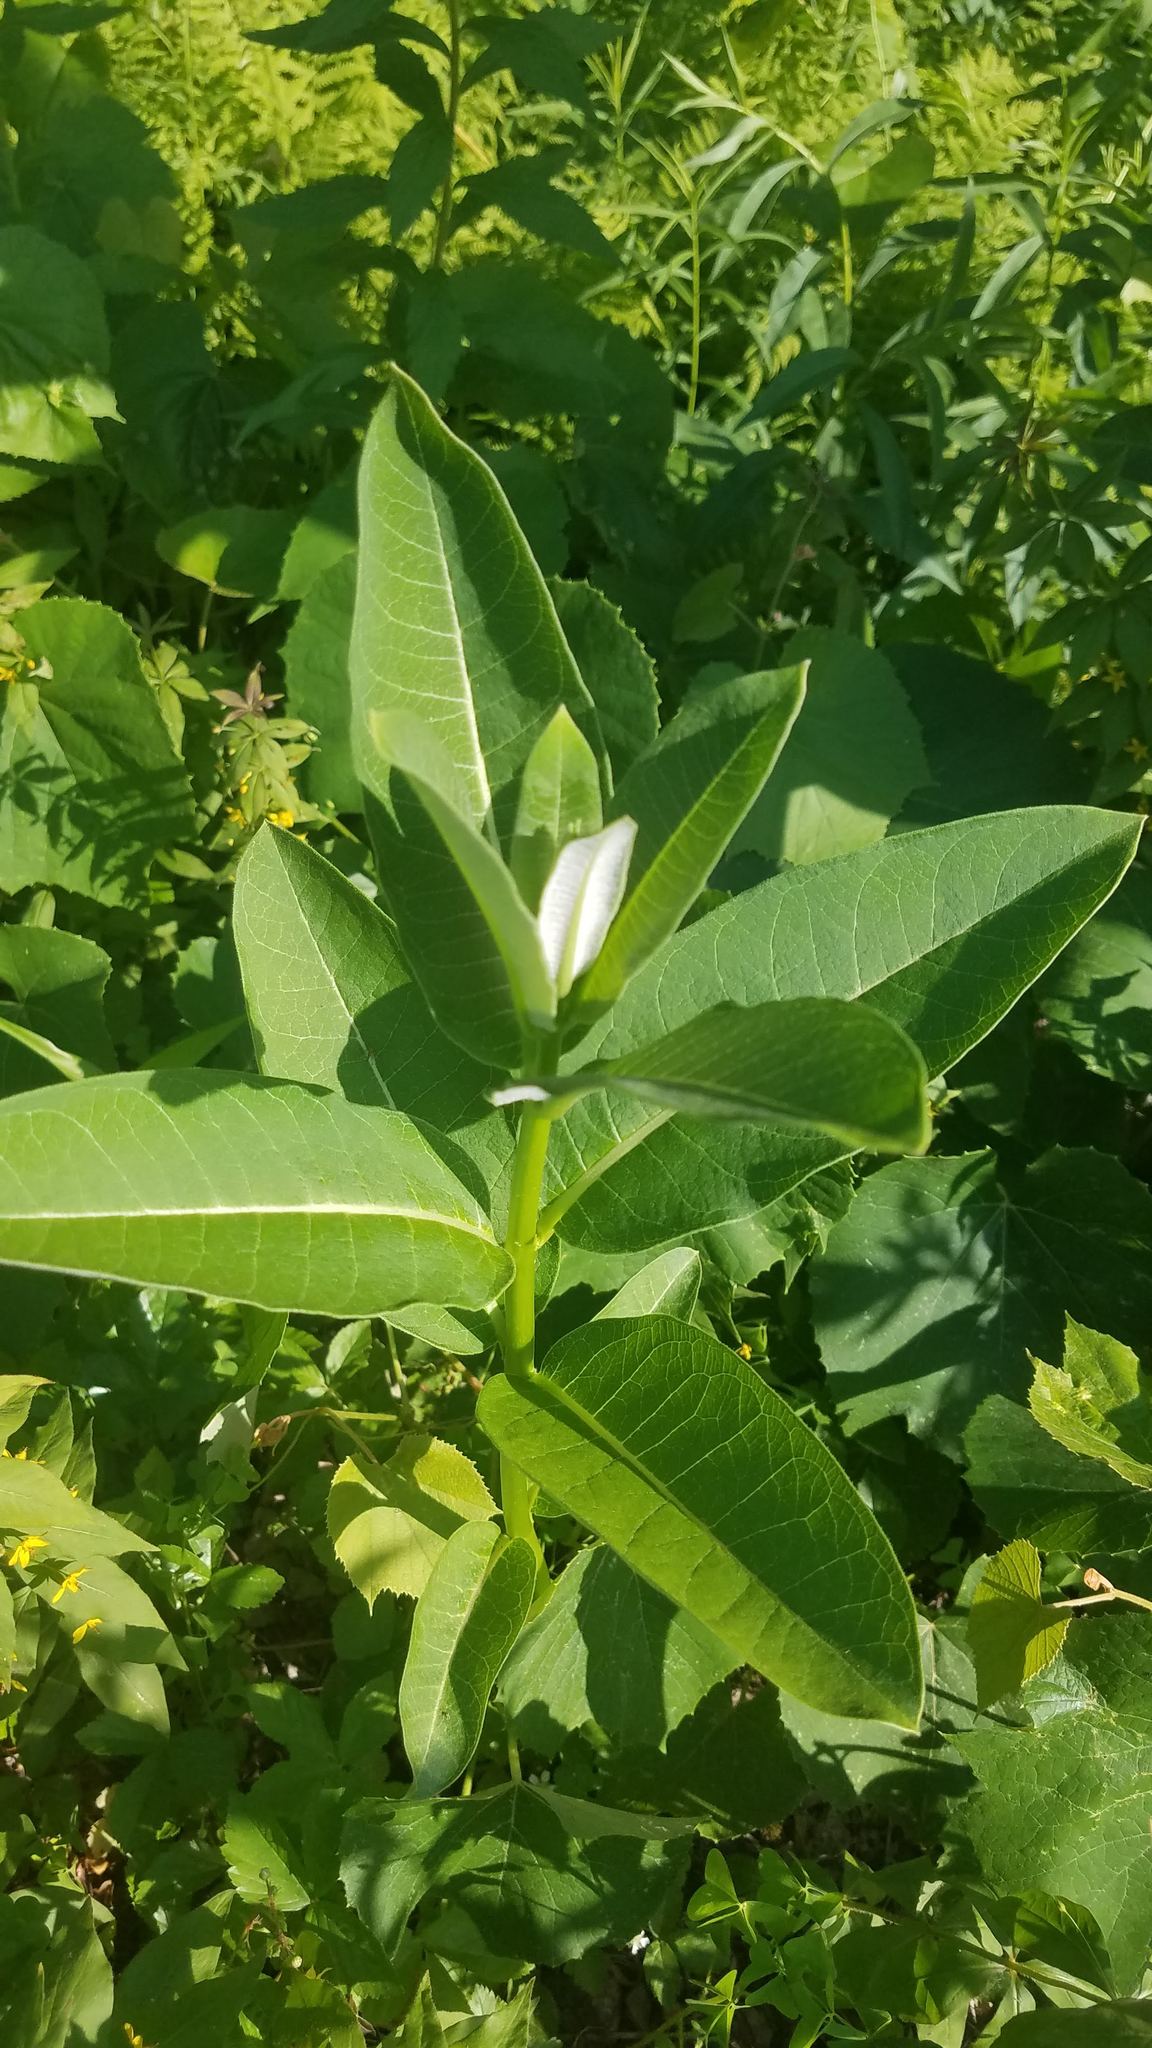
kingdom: Plantae
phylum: Tracheophyta
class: Magnoliopsida
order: Gentianales
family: Apocynaceae
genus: Asclepias
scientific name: Asclepias syriaca
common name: Common milkweed
